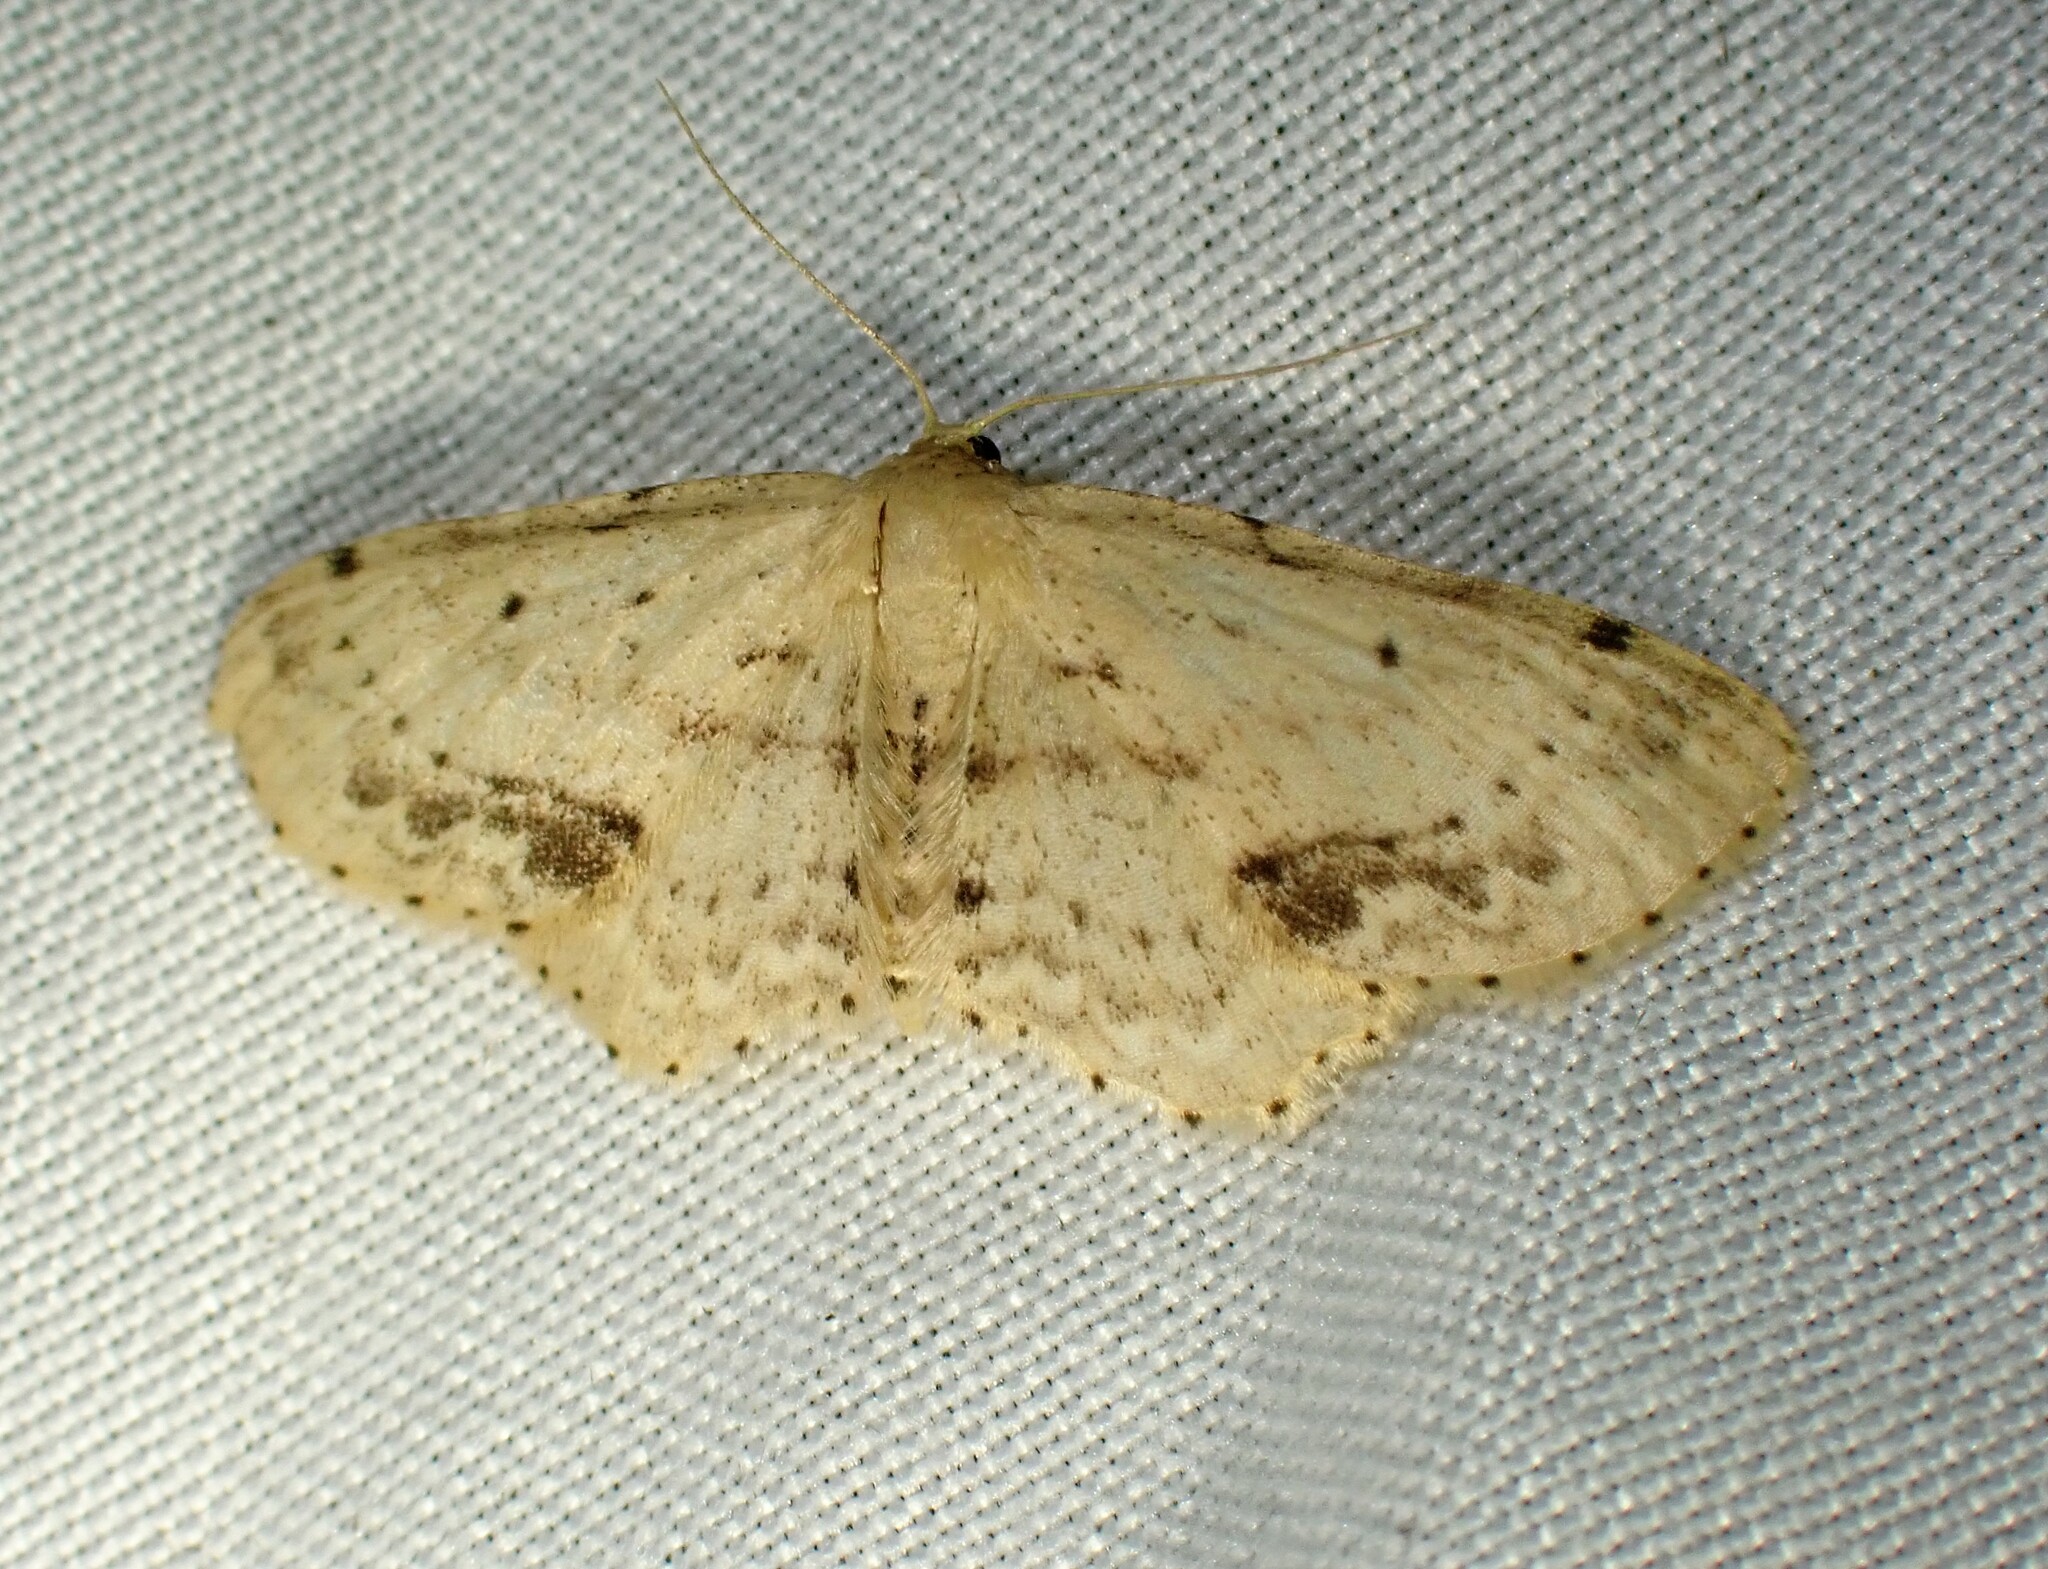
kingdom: Animalia
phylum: Arthropoda
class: Insecta
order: Lepidoptera
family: Geometridae
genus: Idaea
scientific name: Idaea dimidiata
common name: Single-dotted wave
